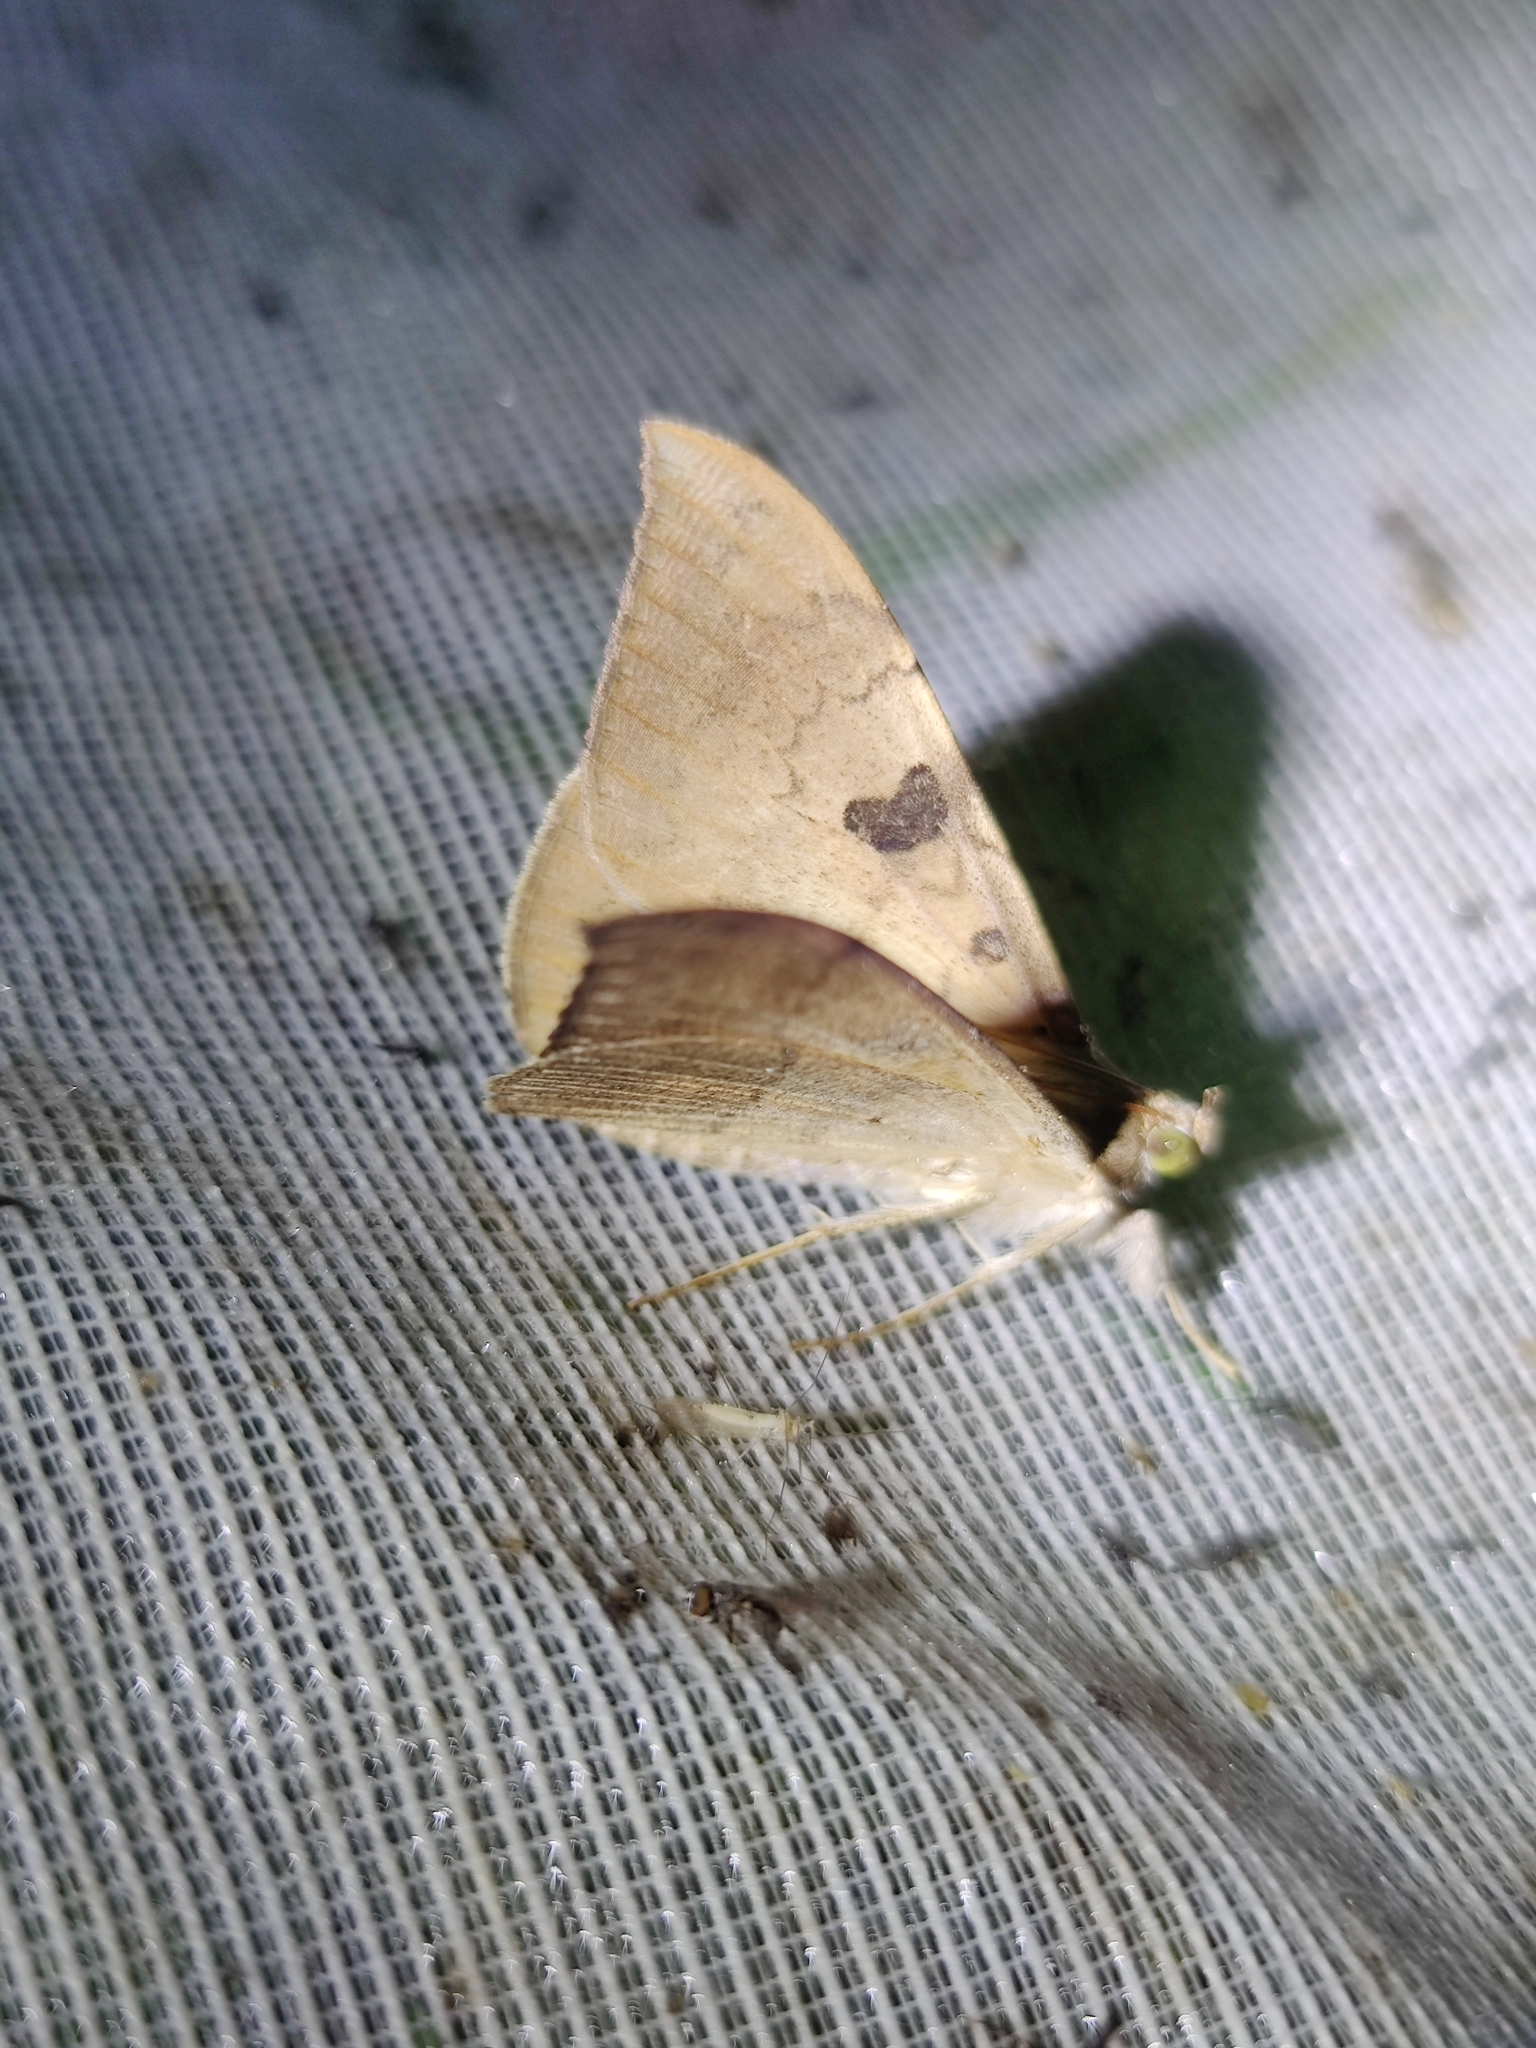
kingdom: Animalia
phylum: Arthropoda
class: Insecta
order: Lepidoptera
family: Erebidae
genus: Oxyodes
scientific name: Oxyodes scrobiculata
